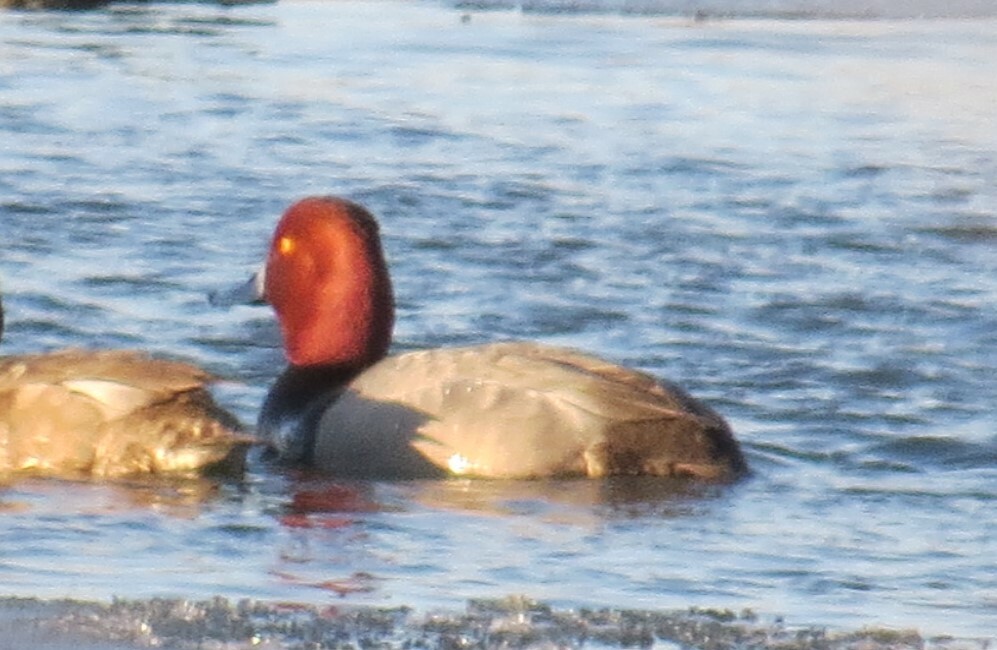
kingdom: Animalia
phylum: Chordata
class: Aves
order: Anseriformes
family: Anatidae
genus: Aythya
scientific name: Aythya americana
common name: Redhead
